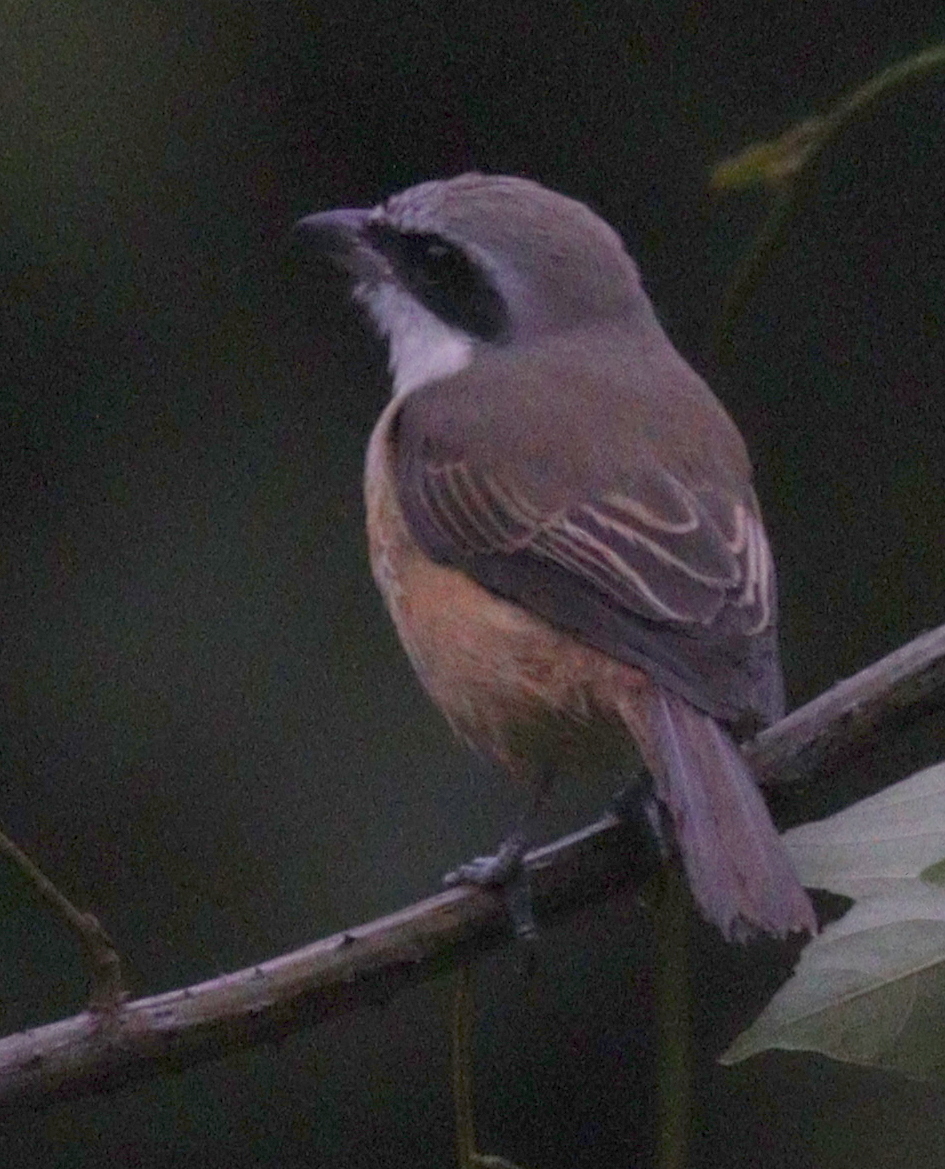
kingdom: Animalia
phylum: Chordata
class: Aves
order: Passeriformes
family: Laniidae
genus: Lanius
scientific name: Lanius cristatus
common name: Brown shrike
